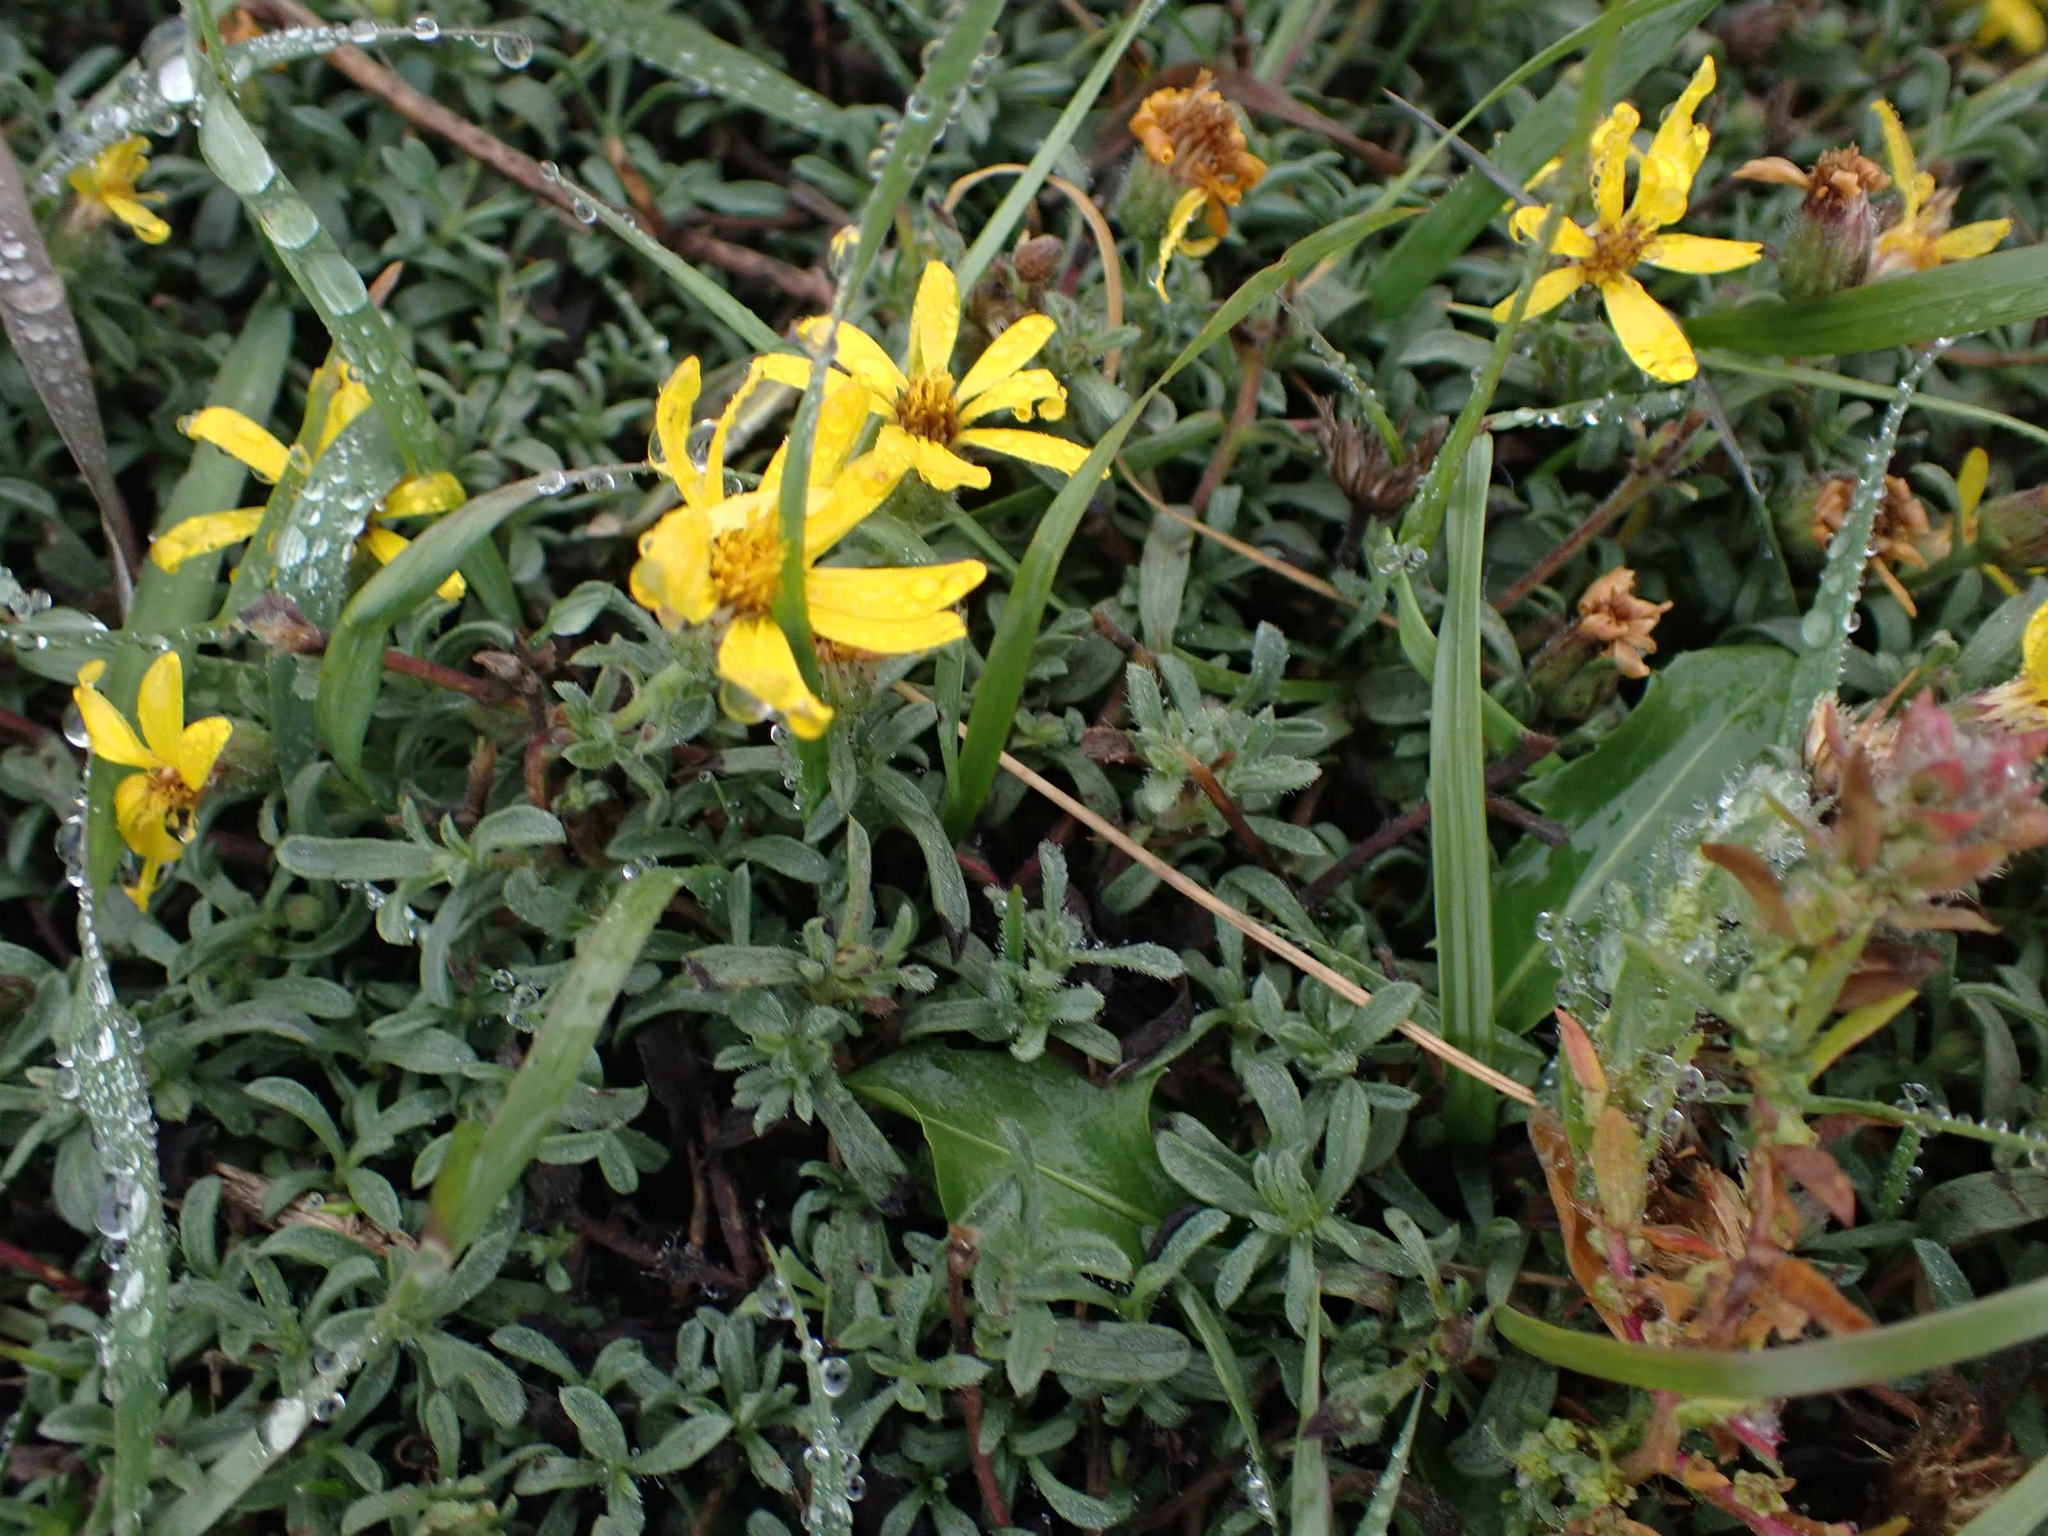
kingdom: Plantae
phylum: Tracheophyta
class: Magnoliopsida
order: Asterales
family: Asteraceae
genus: Heterotheca
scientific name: Heterotheca villosa
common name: Hairy false goldenaster
